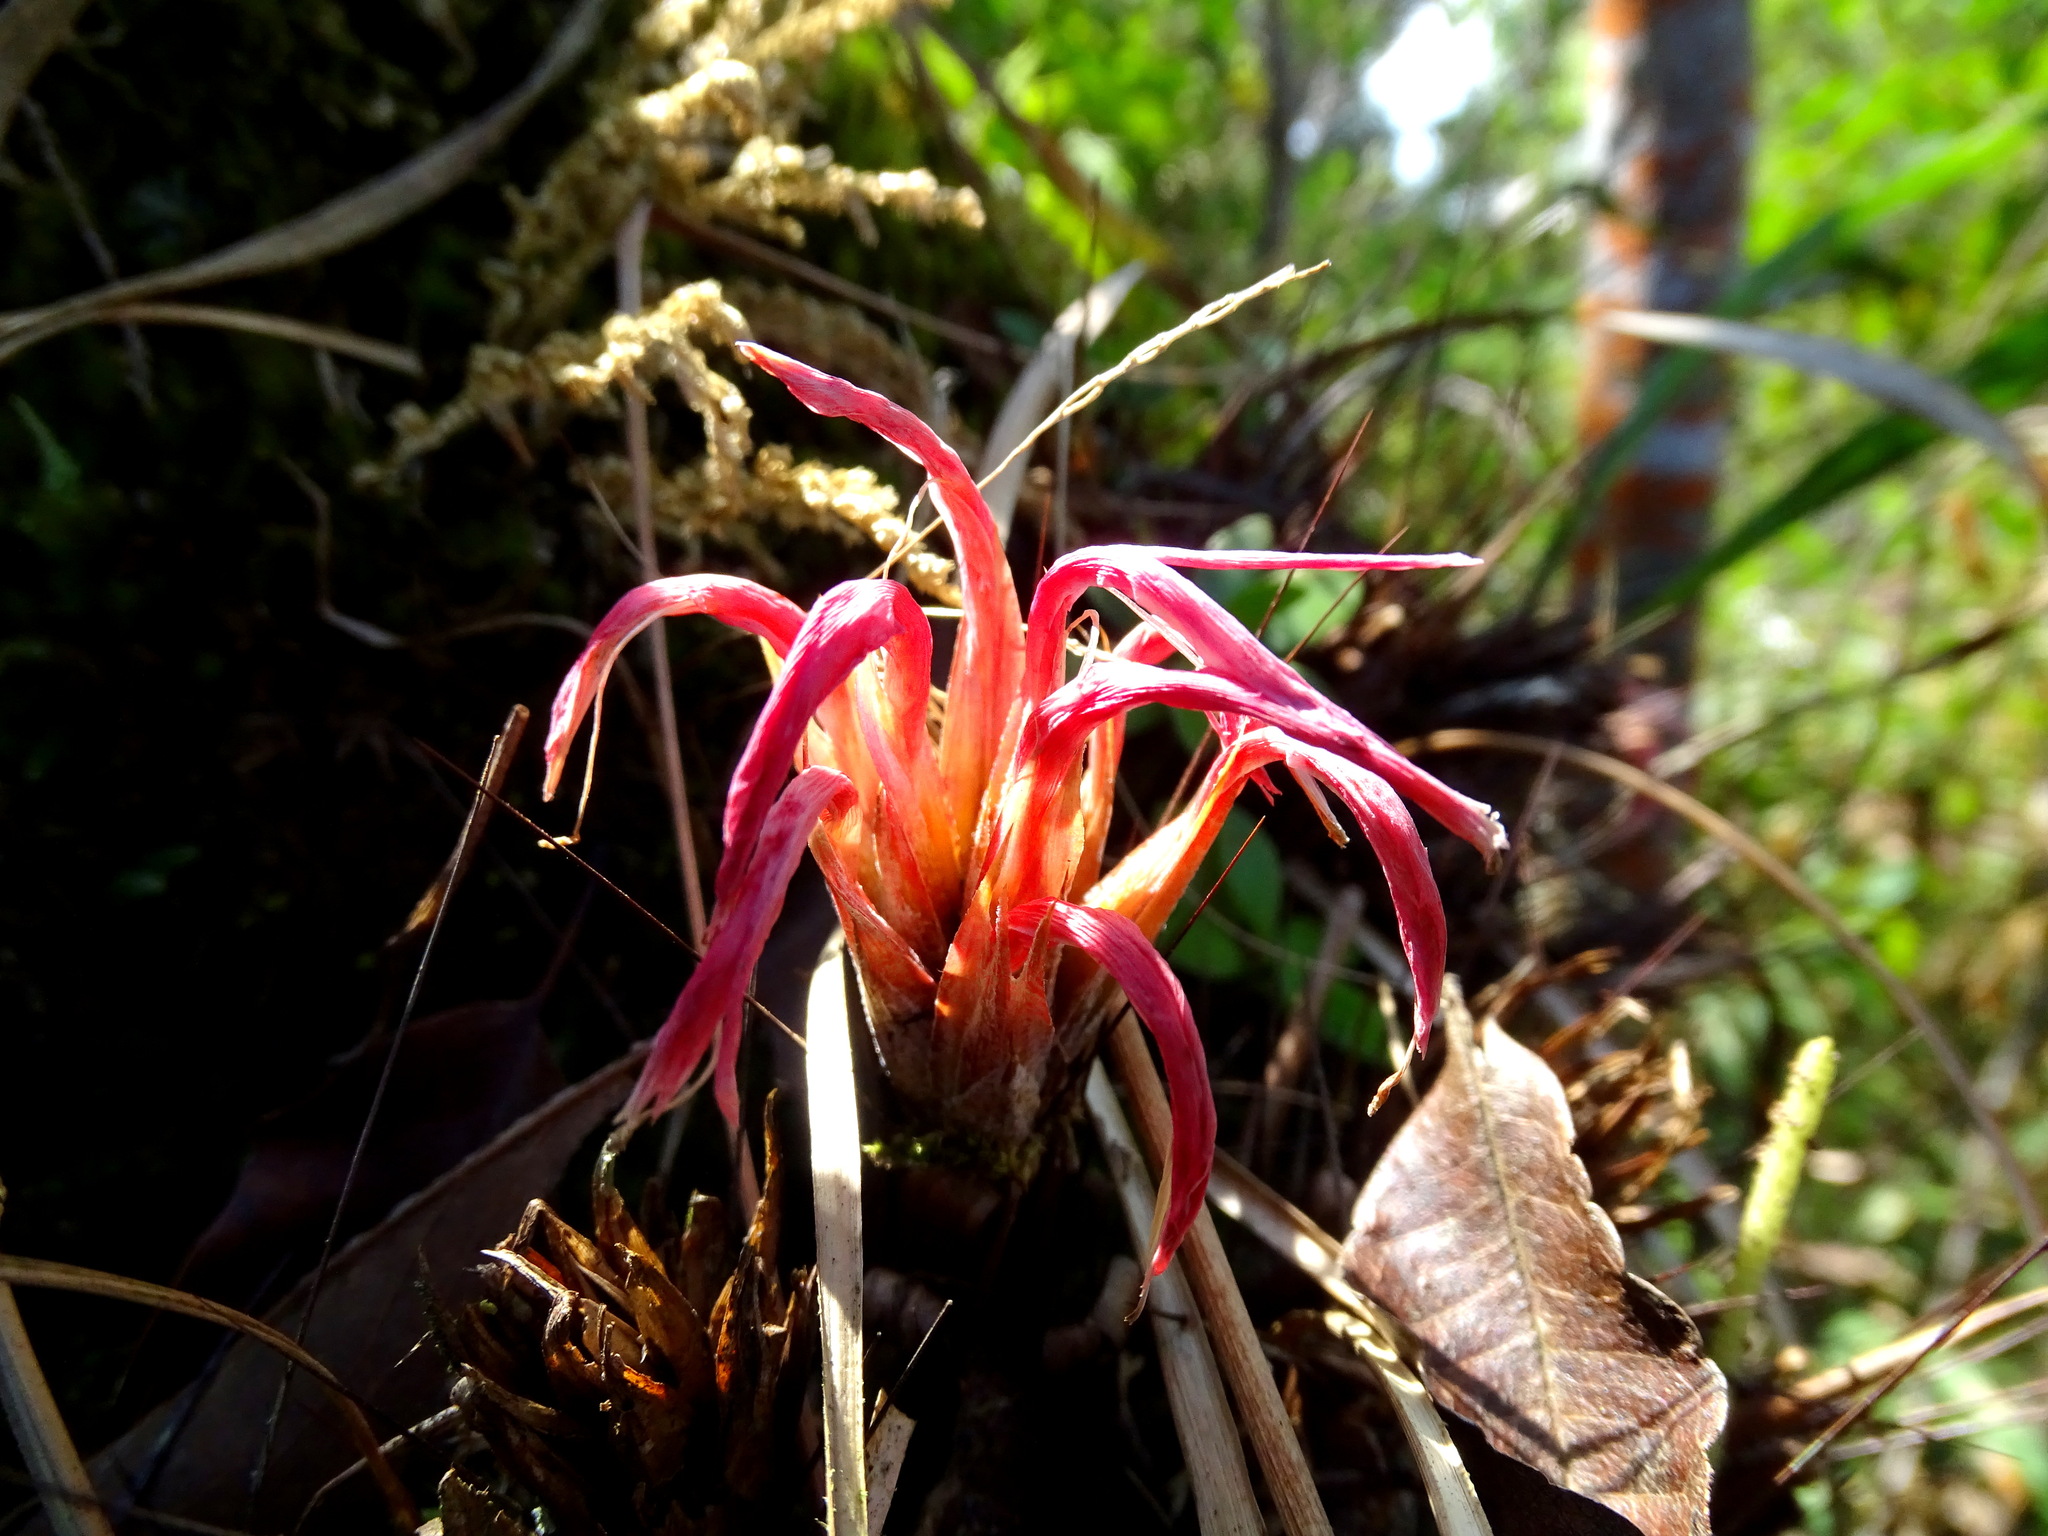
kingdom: Plantae
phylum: Tracheophyta
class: Liliopsida
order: Poales
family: Bromeliaceae
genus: Pitcairnia
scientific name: Pitcairnia heterophylla
